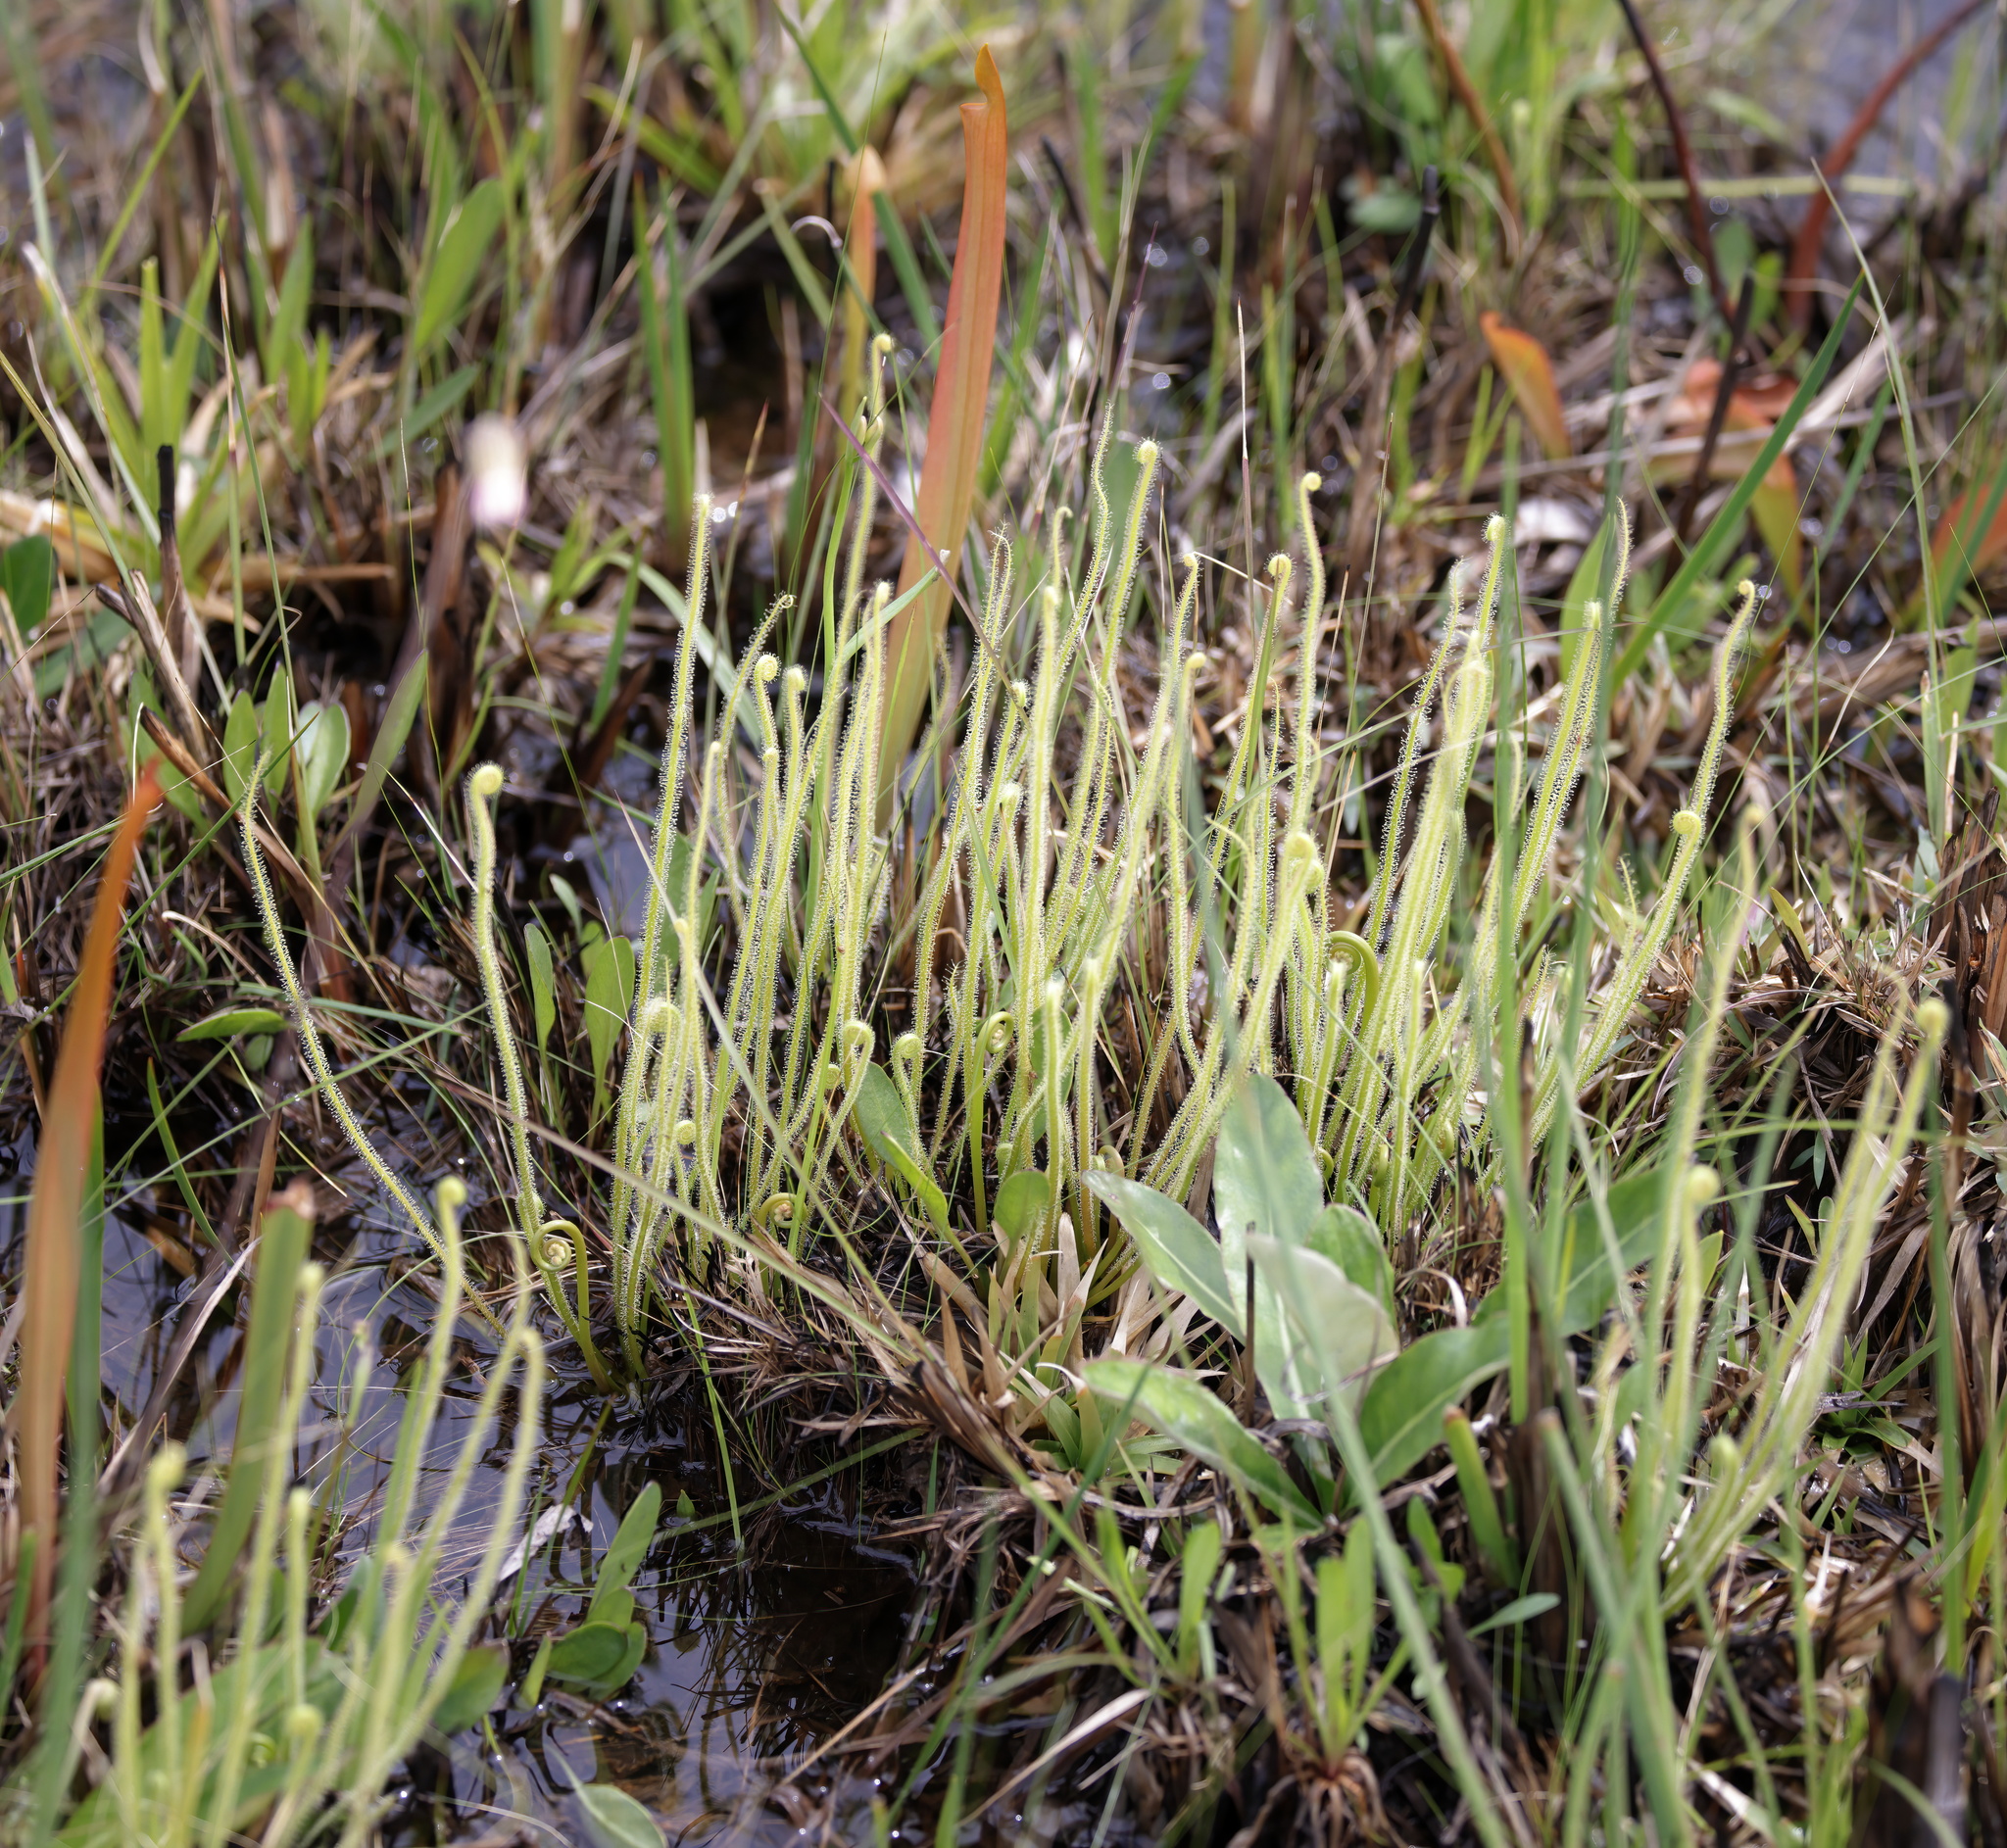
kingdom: Plantae
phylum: Tracheophyta
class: Magnoliopsida
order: Caryophyllales
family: Droseraceae
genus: Drosera
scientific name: Drosera filiformis
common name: Dew-thread
